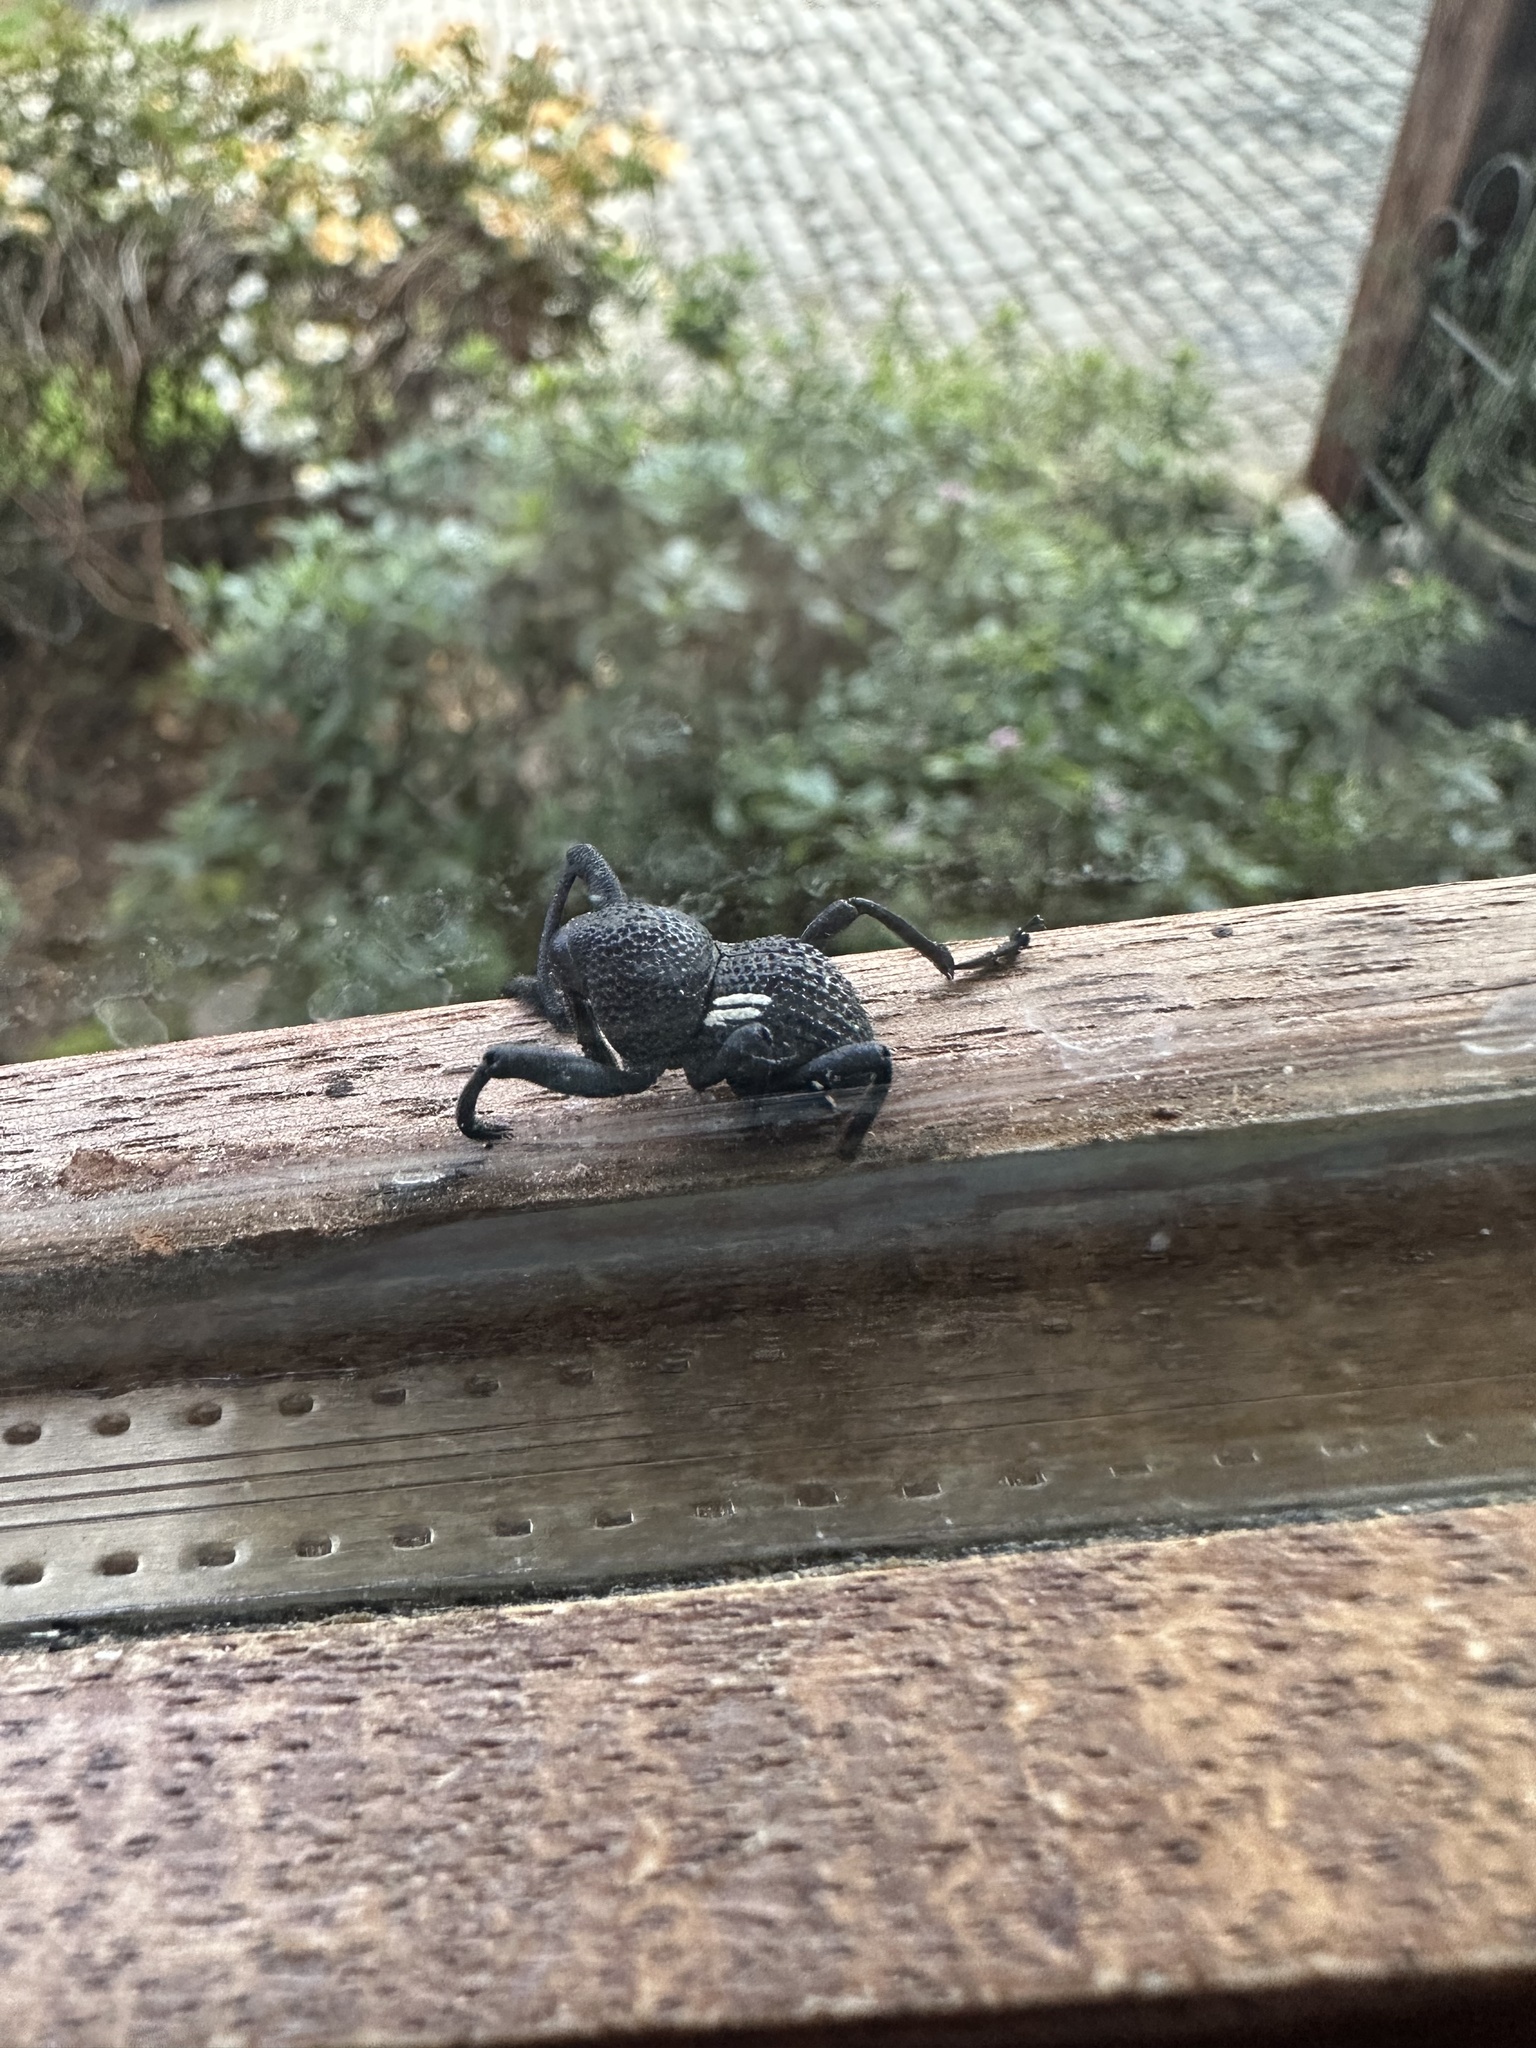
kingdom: Animalia
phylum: Arthropoda
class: Insecta
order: Coleoptera
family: Curculionidae
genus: Rhyephenes
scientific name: Rhyephenes humeralis
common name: Araè±ita chilena del pino
